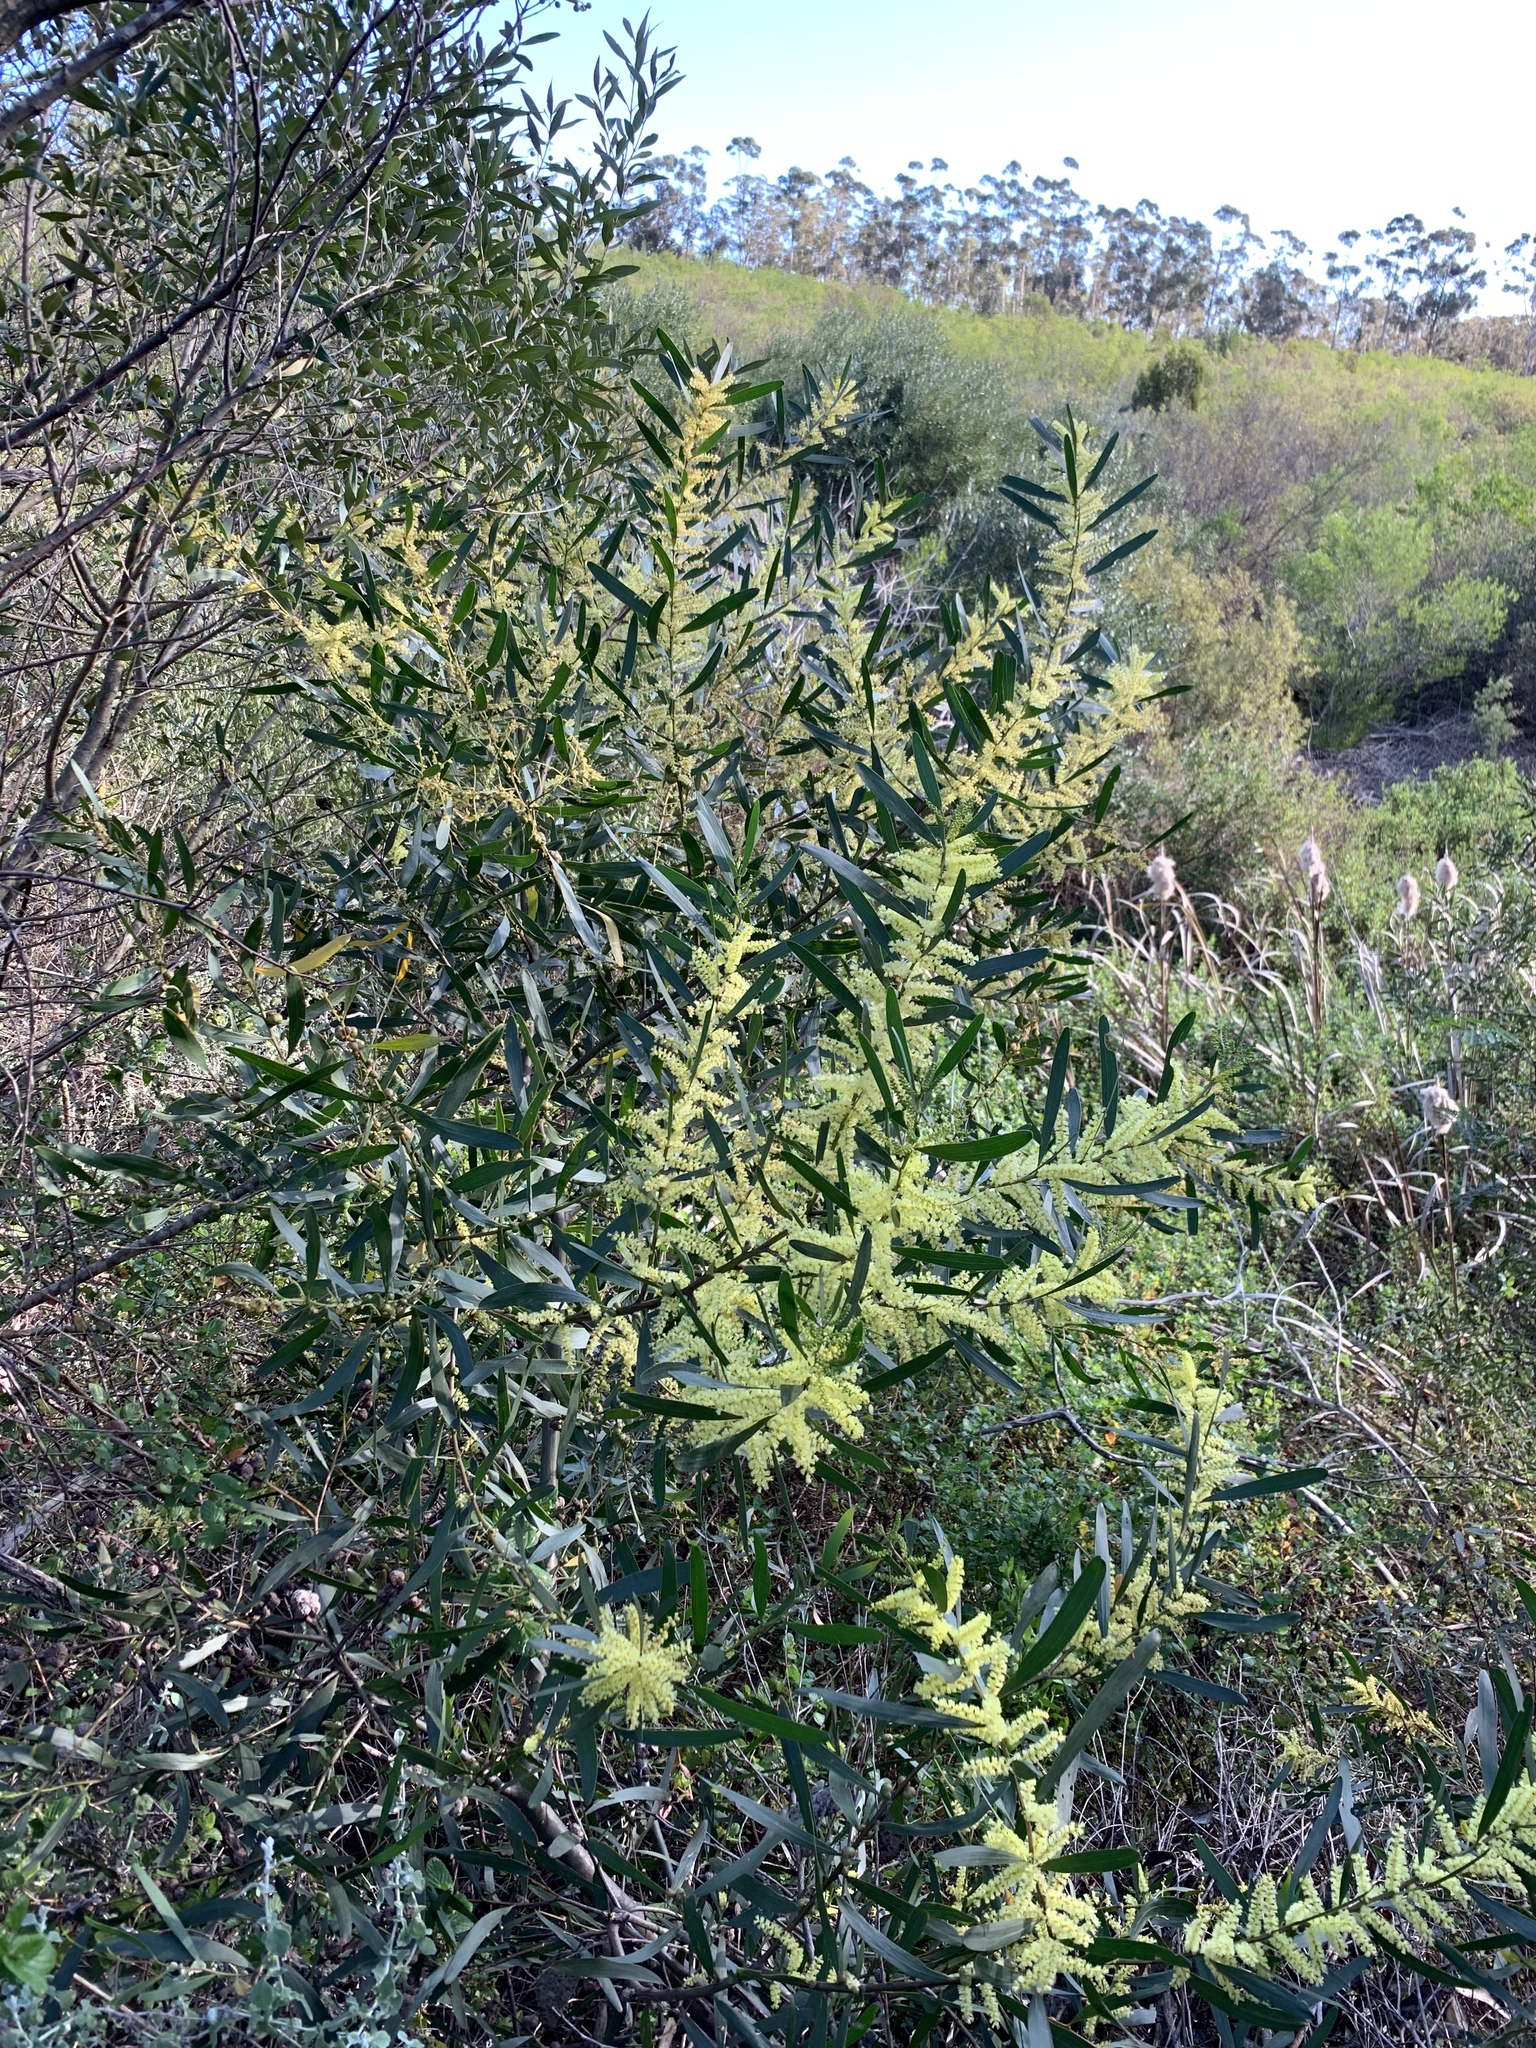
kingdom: Plantae
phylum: Tracheophyta
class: Magnoliopsida
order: Fabales
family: Fabaceae
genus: Acacia
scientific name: Acacia longifolia
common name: Sydney golden wattle
